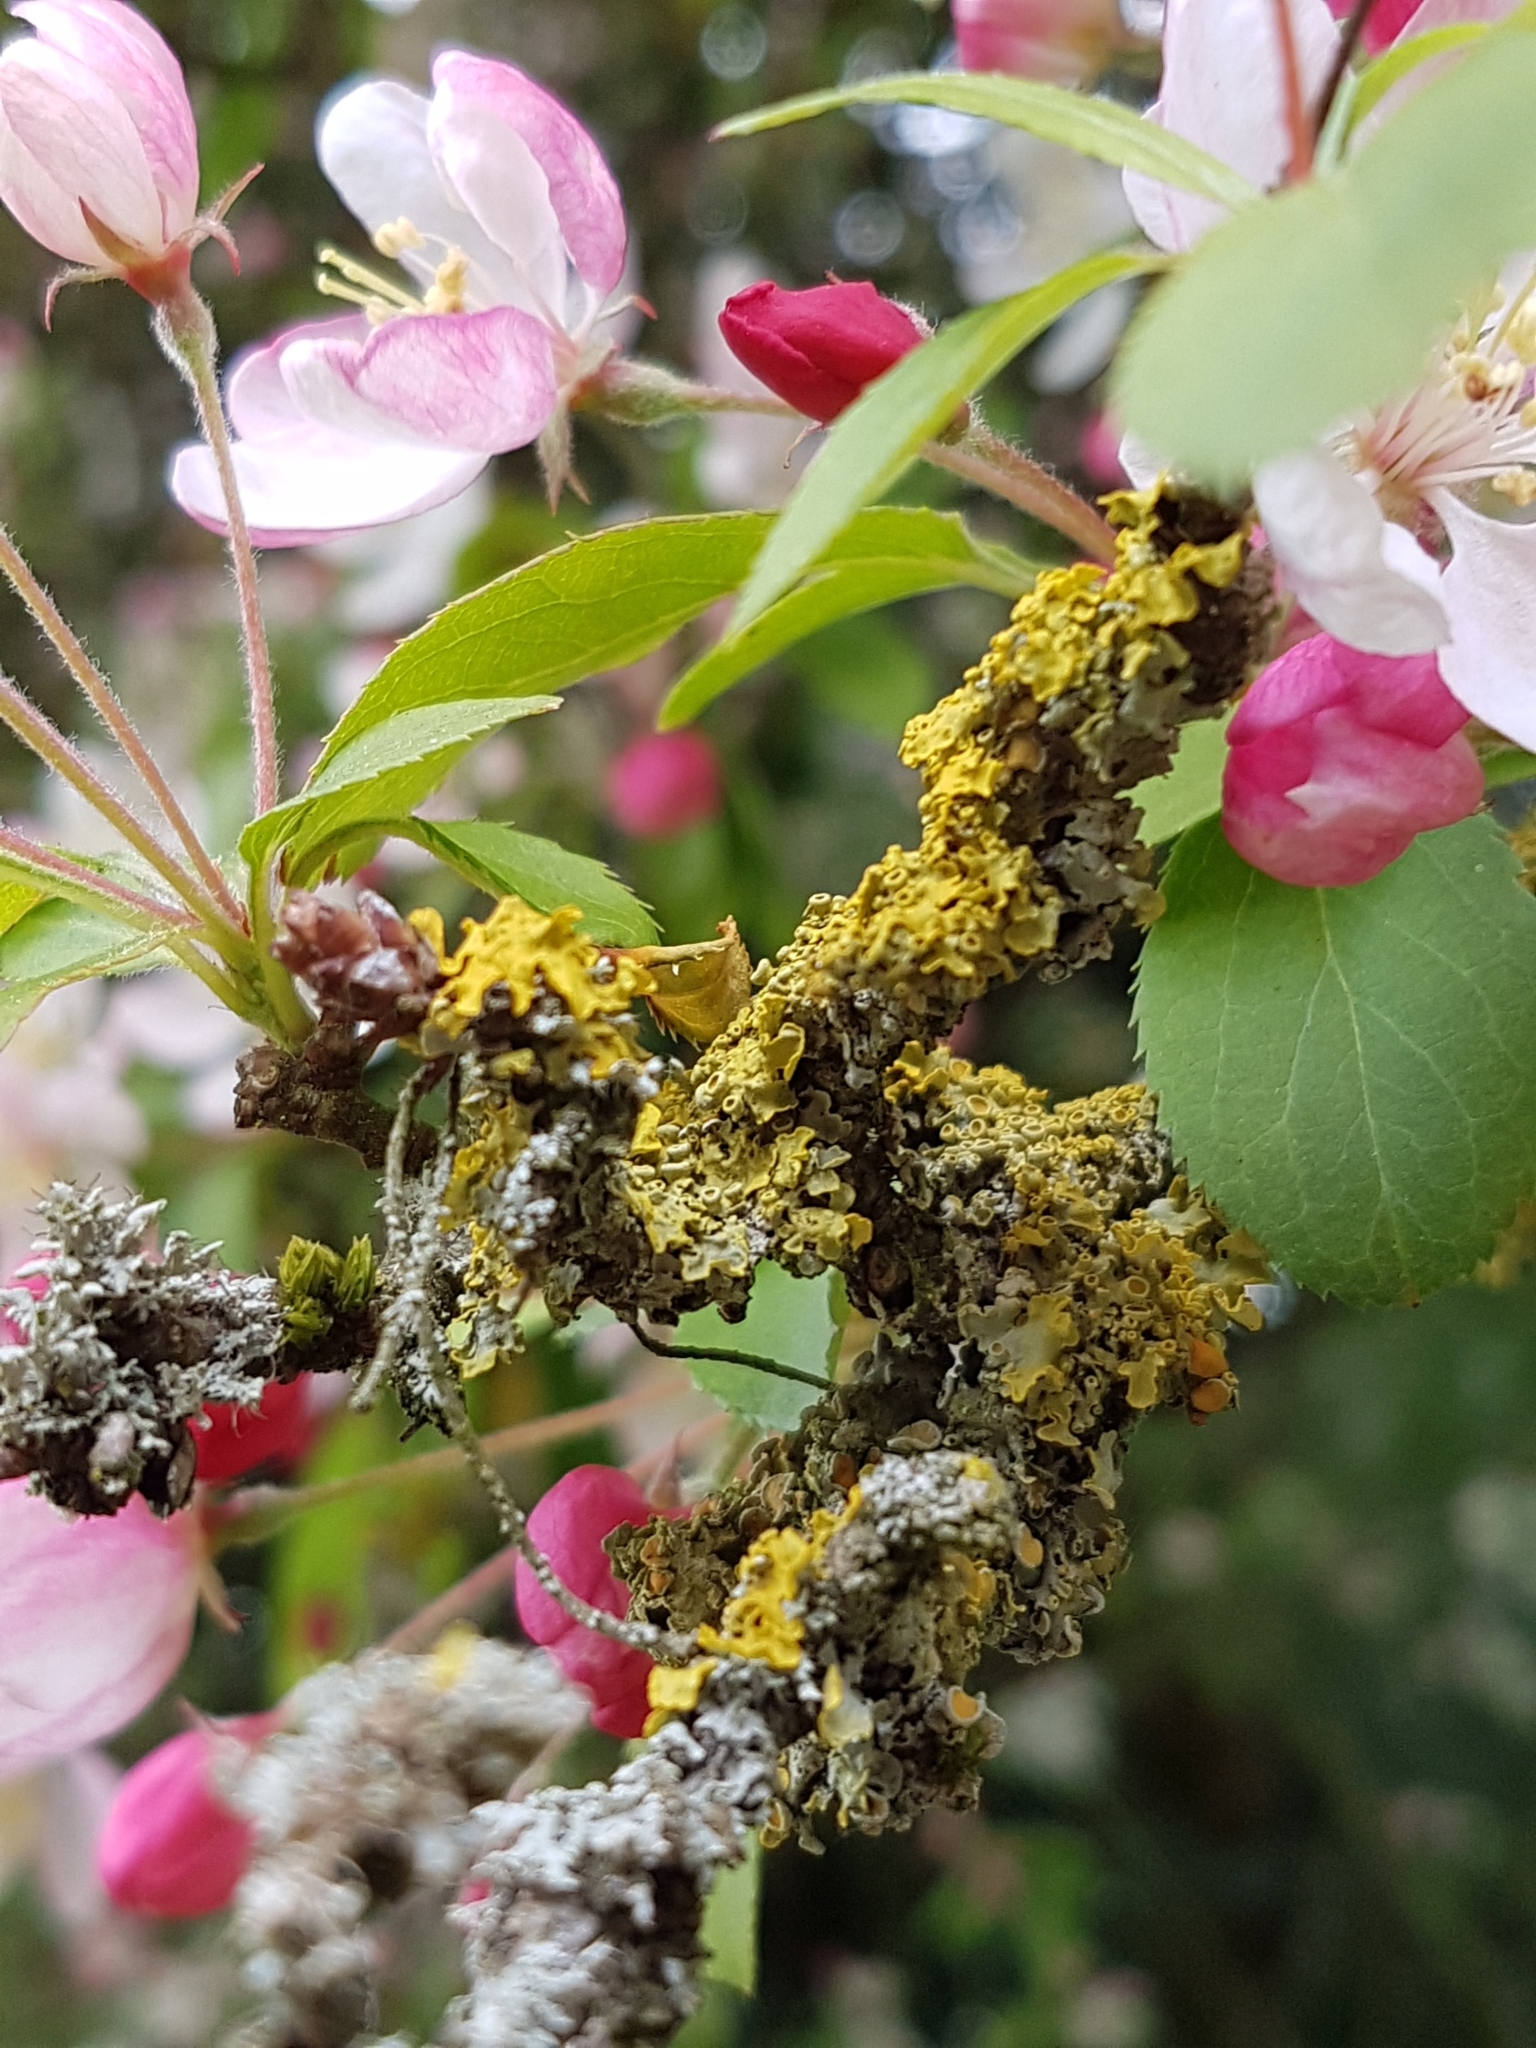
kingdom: Fungi
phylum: Ascomycota
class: Lecanoromycetes
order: Teloschistales
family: Teloschistaceae
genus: Xanthoria
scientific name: Xanthoria parietina
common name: Common orange lichen
